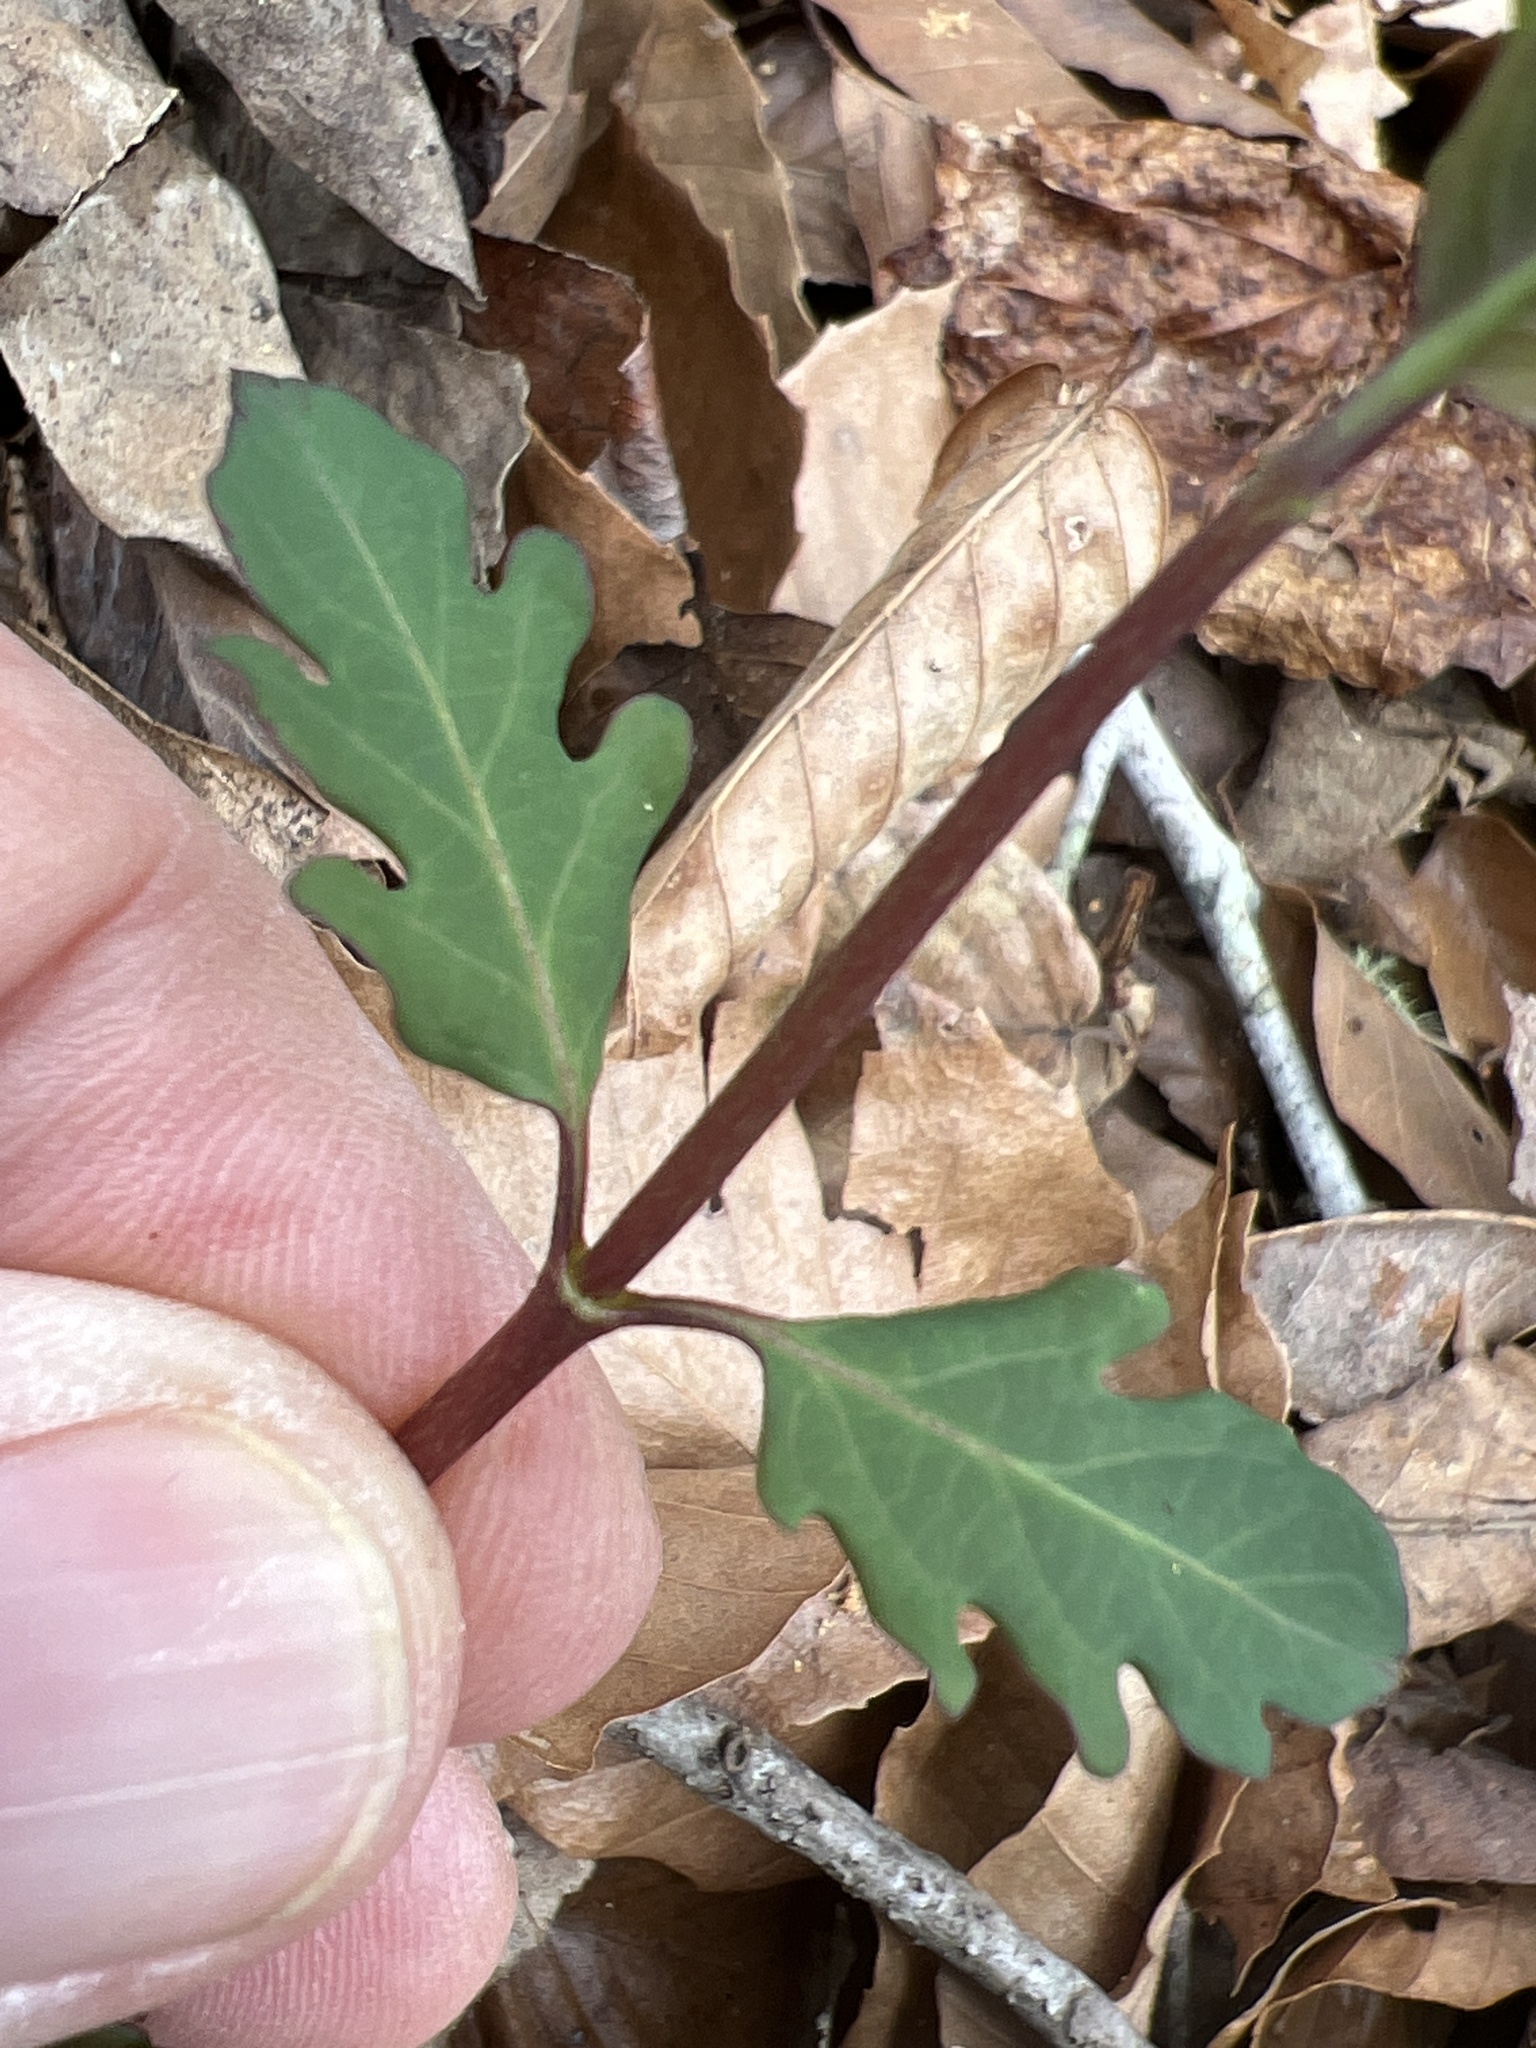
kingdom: Plantae
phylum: Tracheophyta
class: Magnoliopsida
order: Dipsacales
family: Caprifoliaceae
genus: Lonicera
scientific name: Lonicera japonica
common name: Japanese honeysuckle
